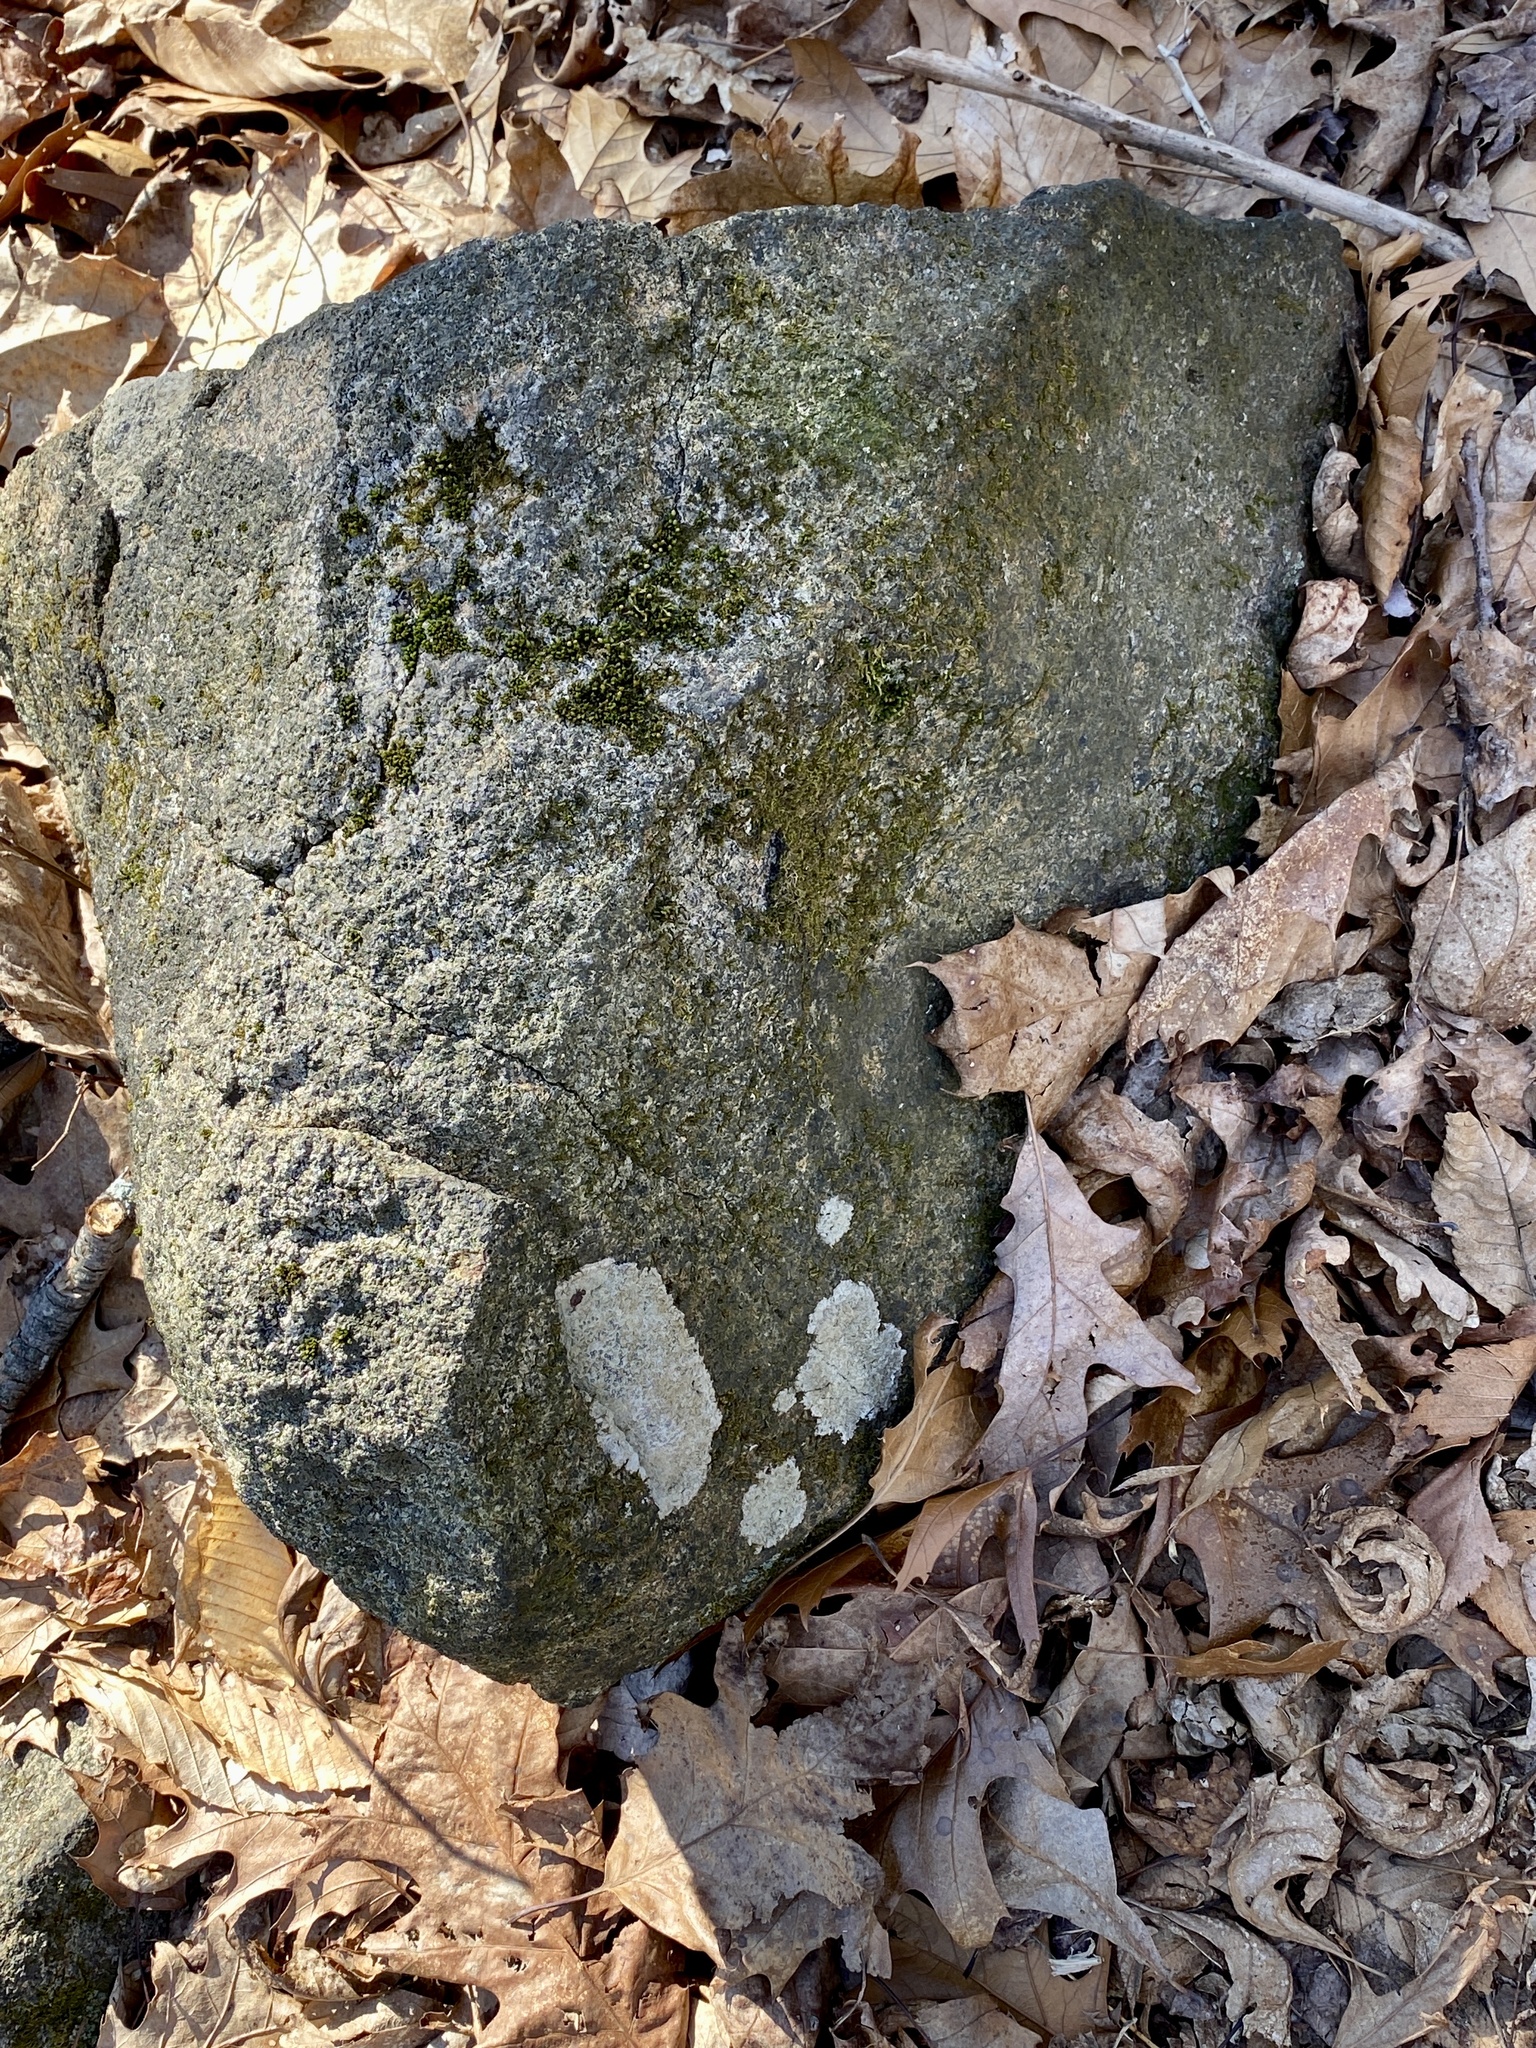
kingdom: Fungi
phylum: Ascomycota
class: Lecanoromycetes
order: Lecideales
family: Lecideaceae
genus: Porpidia
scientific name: Porpidia albocaerulescens
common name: Smokey-eyed boulder lichen
